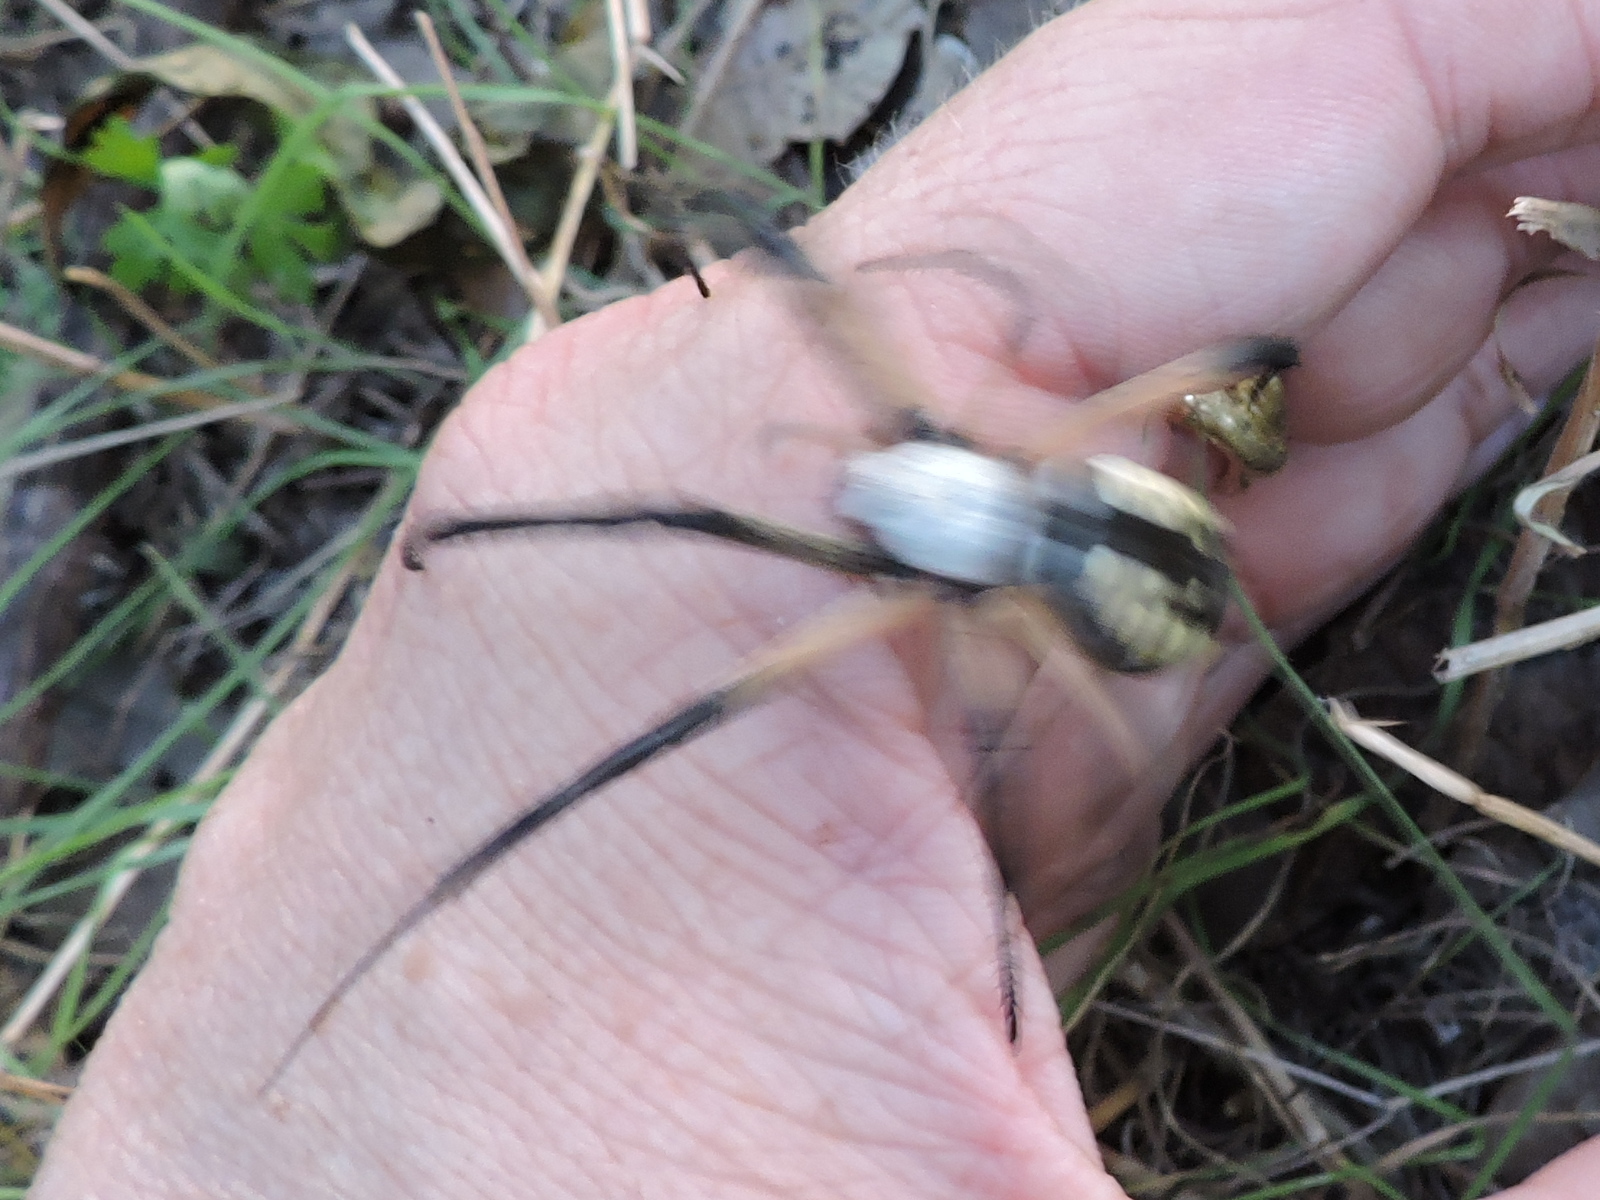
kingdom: Animalia
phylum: Arthropoda
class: Arachnida
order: Araneae
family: Araneidae
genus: Argiope
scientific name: Argiope aurantia
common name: Orb weavers
